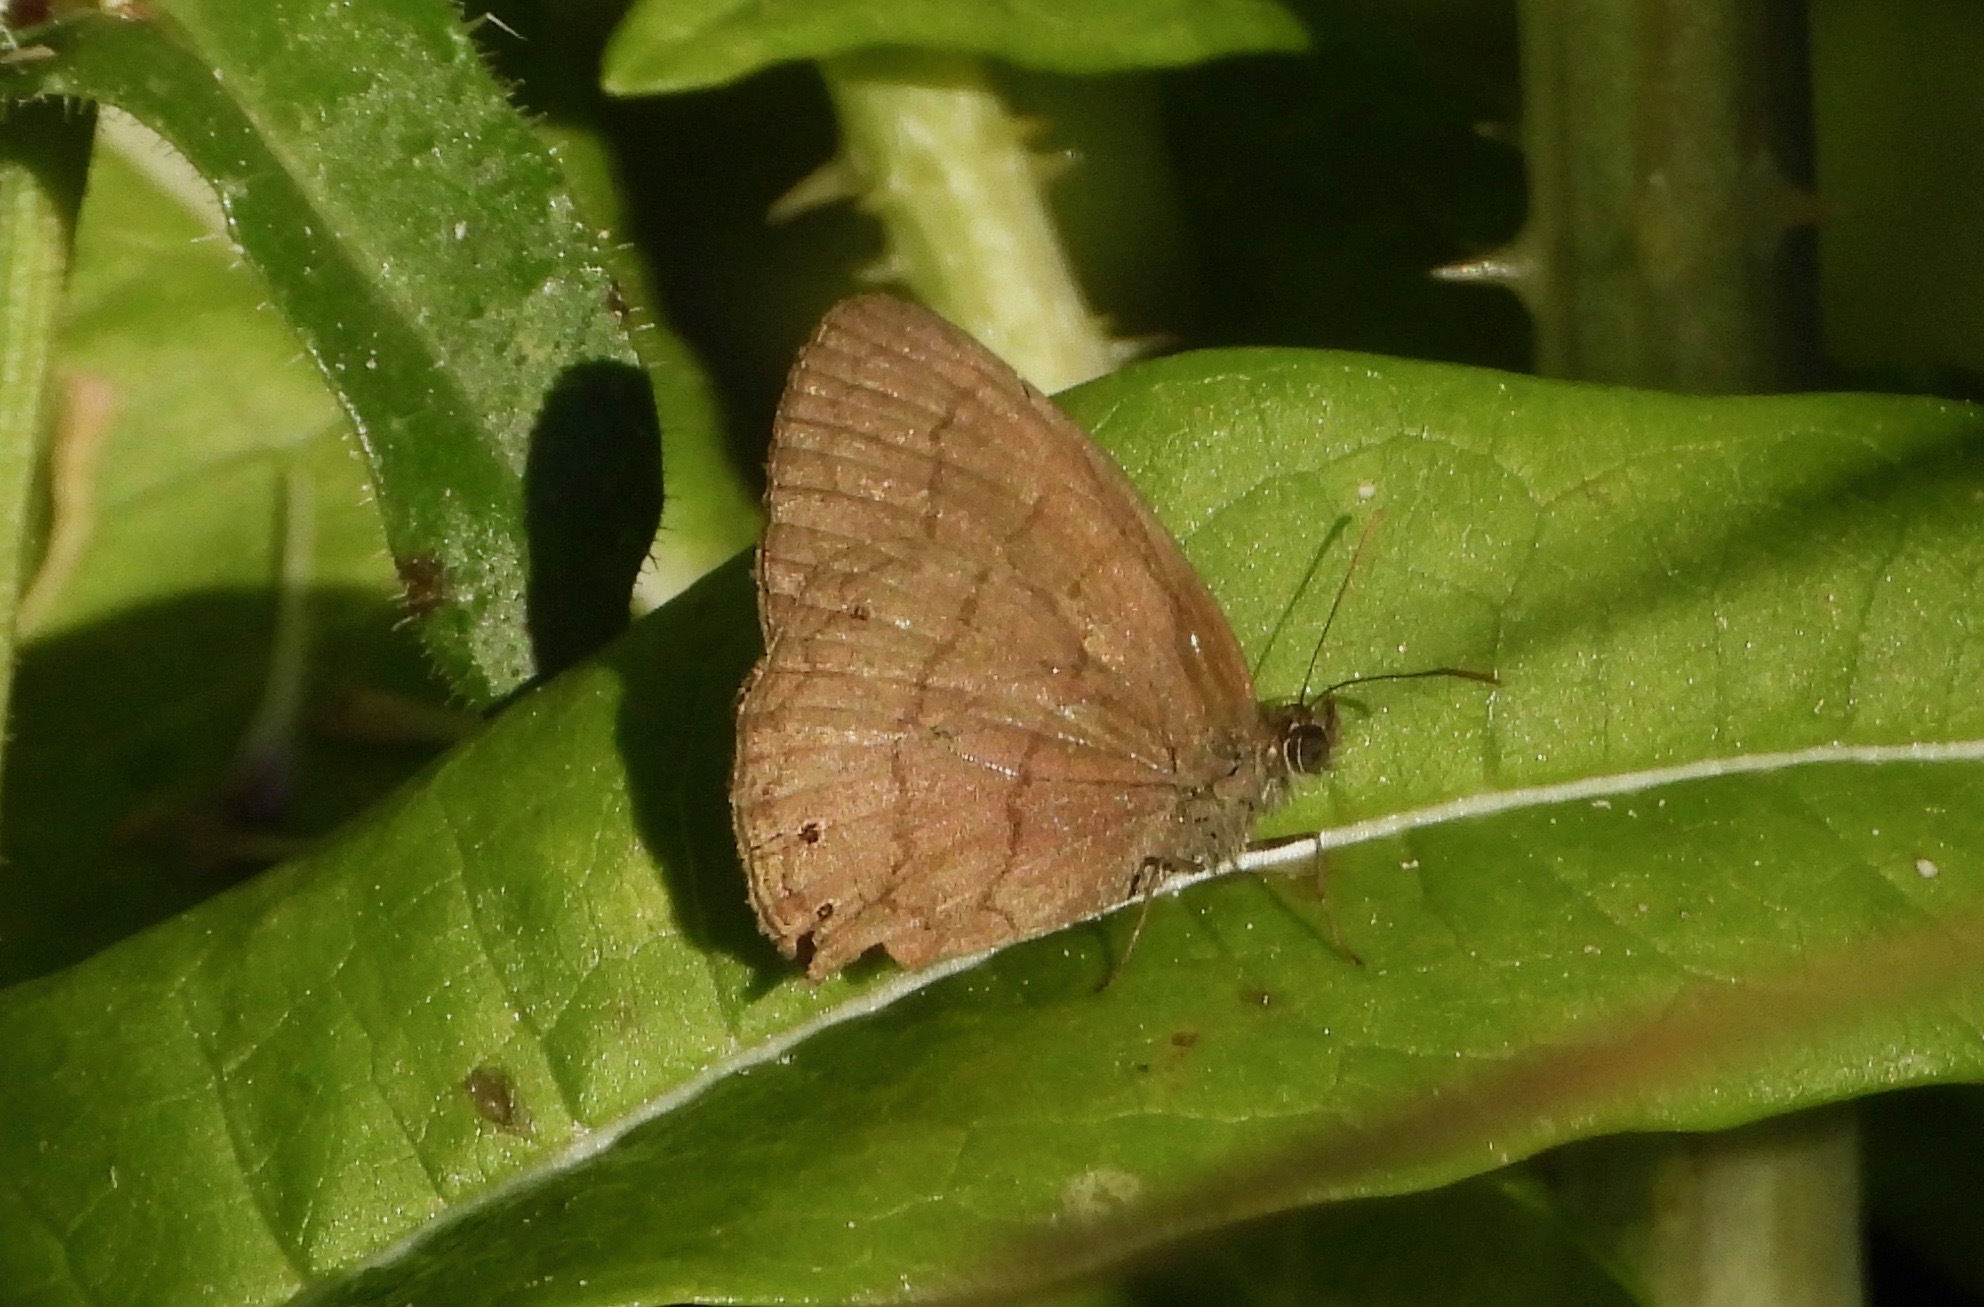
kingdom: Animalia
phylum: Arthropoda
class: Insecta
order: Lepidoptera
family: Nymphalidae
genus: Euptychia
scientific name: Euptychia Cissia eous
